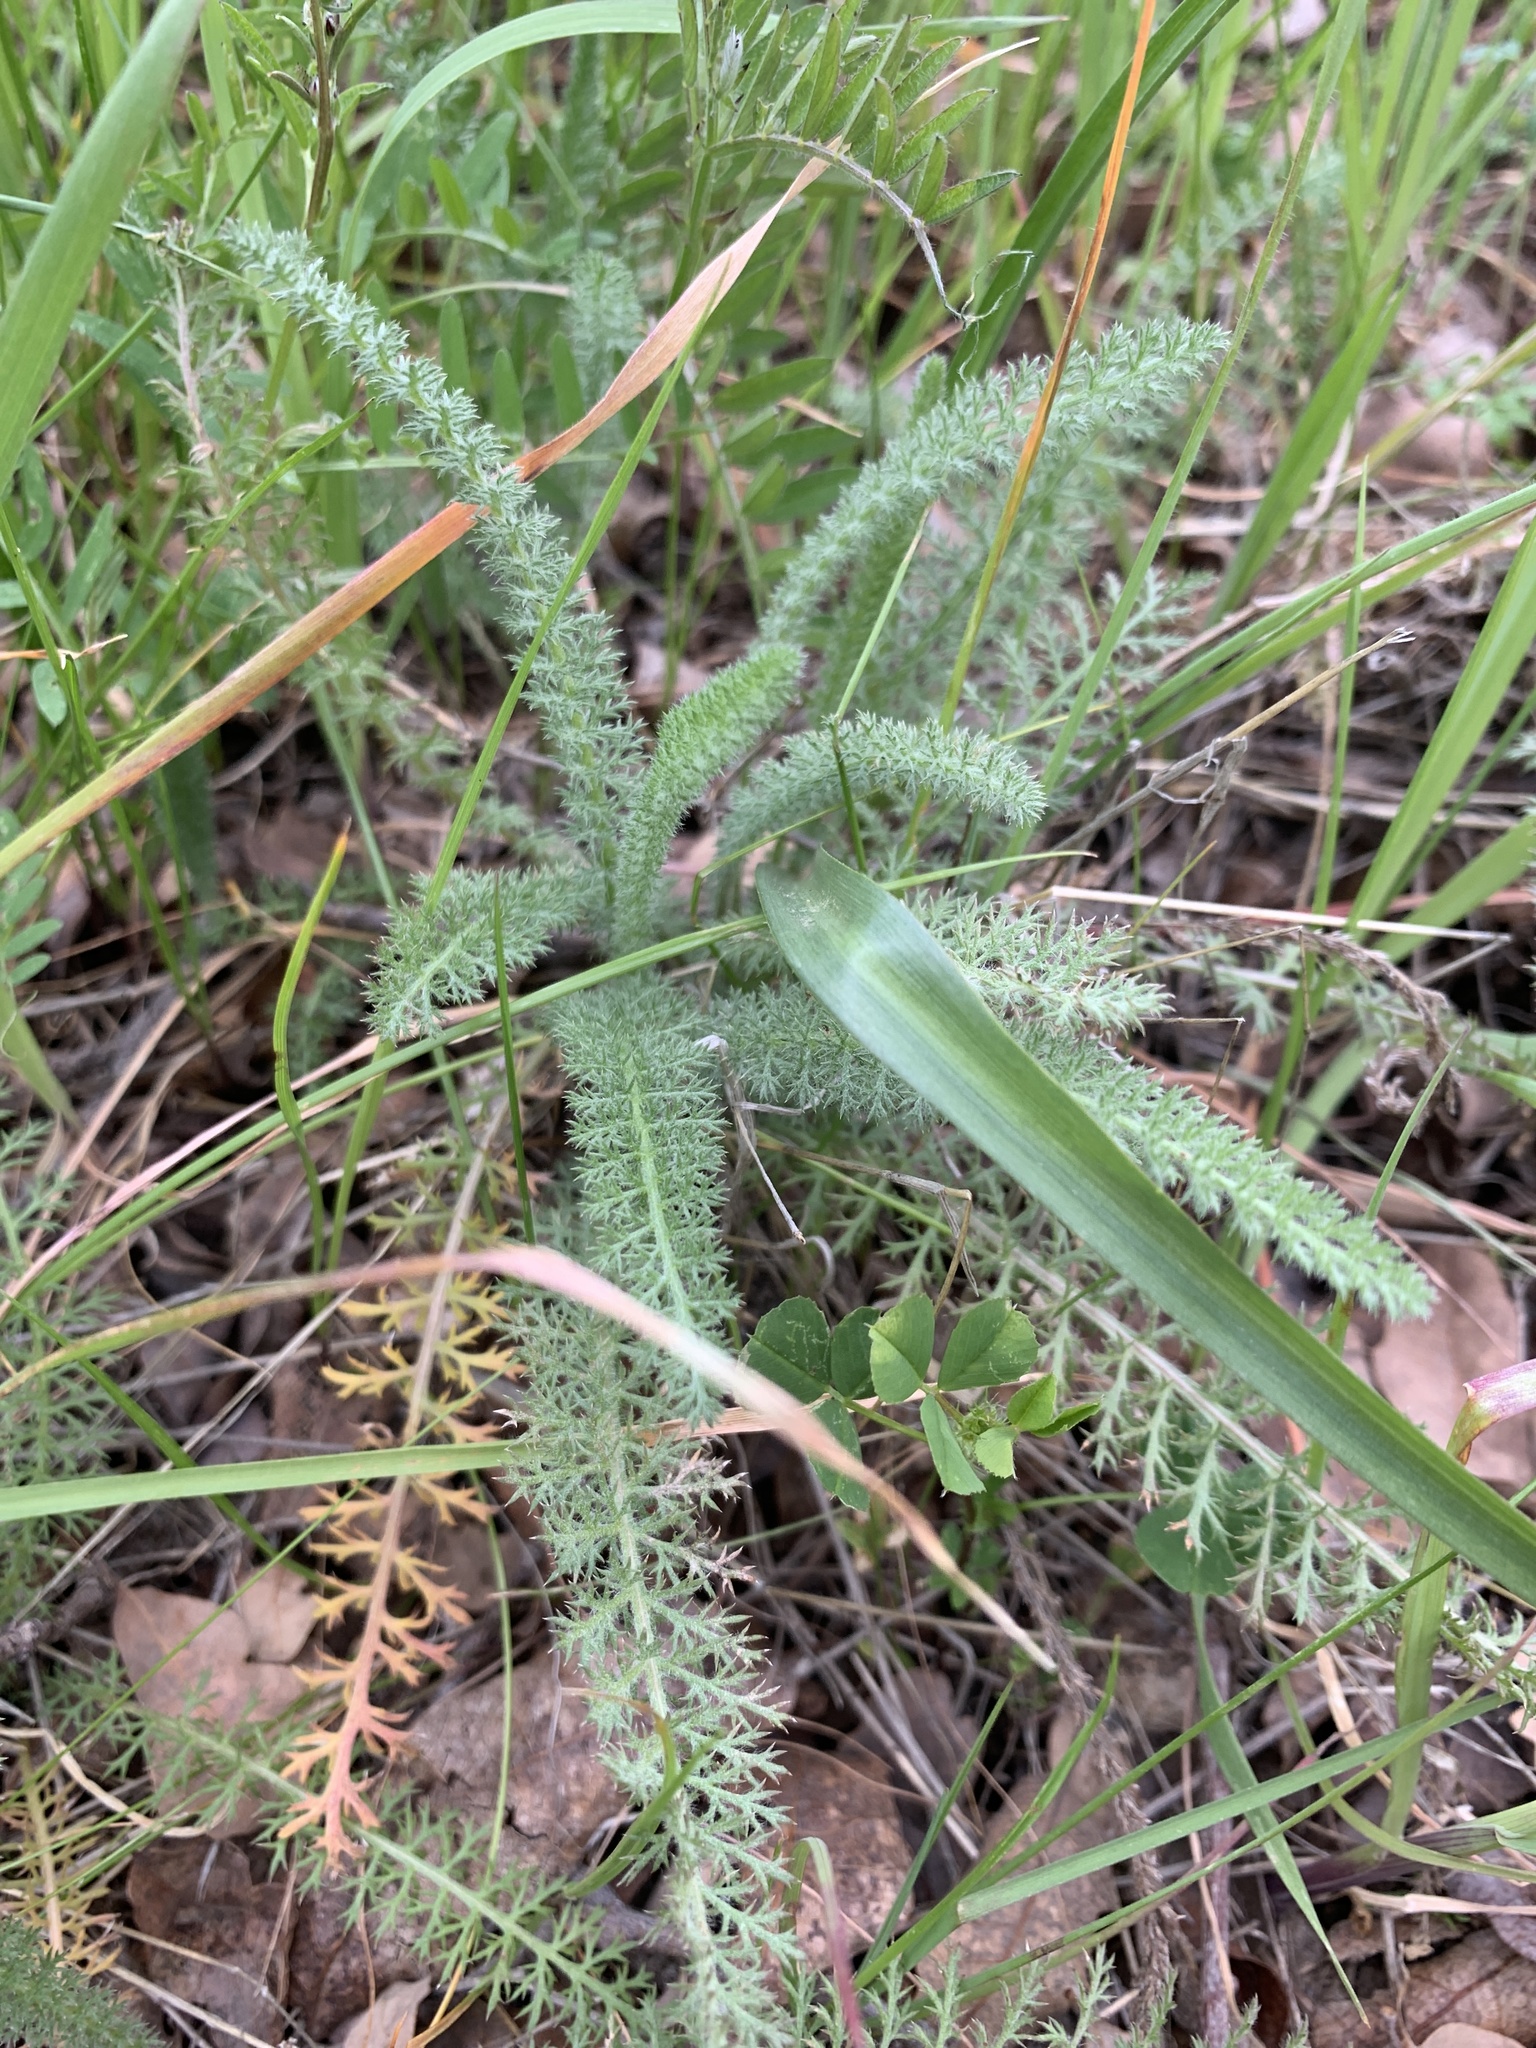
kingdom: Plantae
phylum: Tracheophyta
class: Magnoliopsida
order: Asterales
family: Asteraceae
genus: Achillea
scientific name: Achillea millefolium
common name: Yarrow
